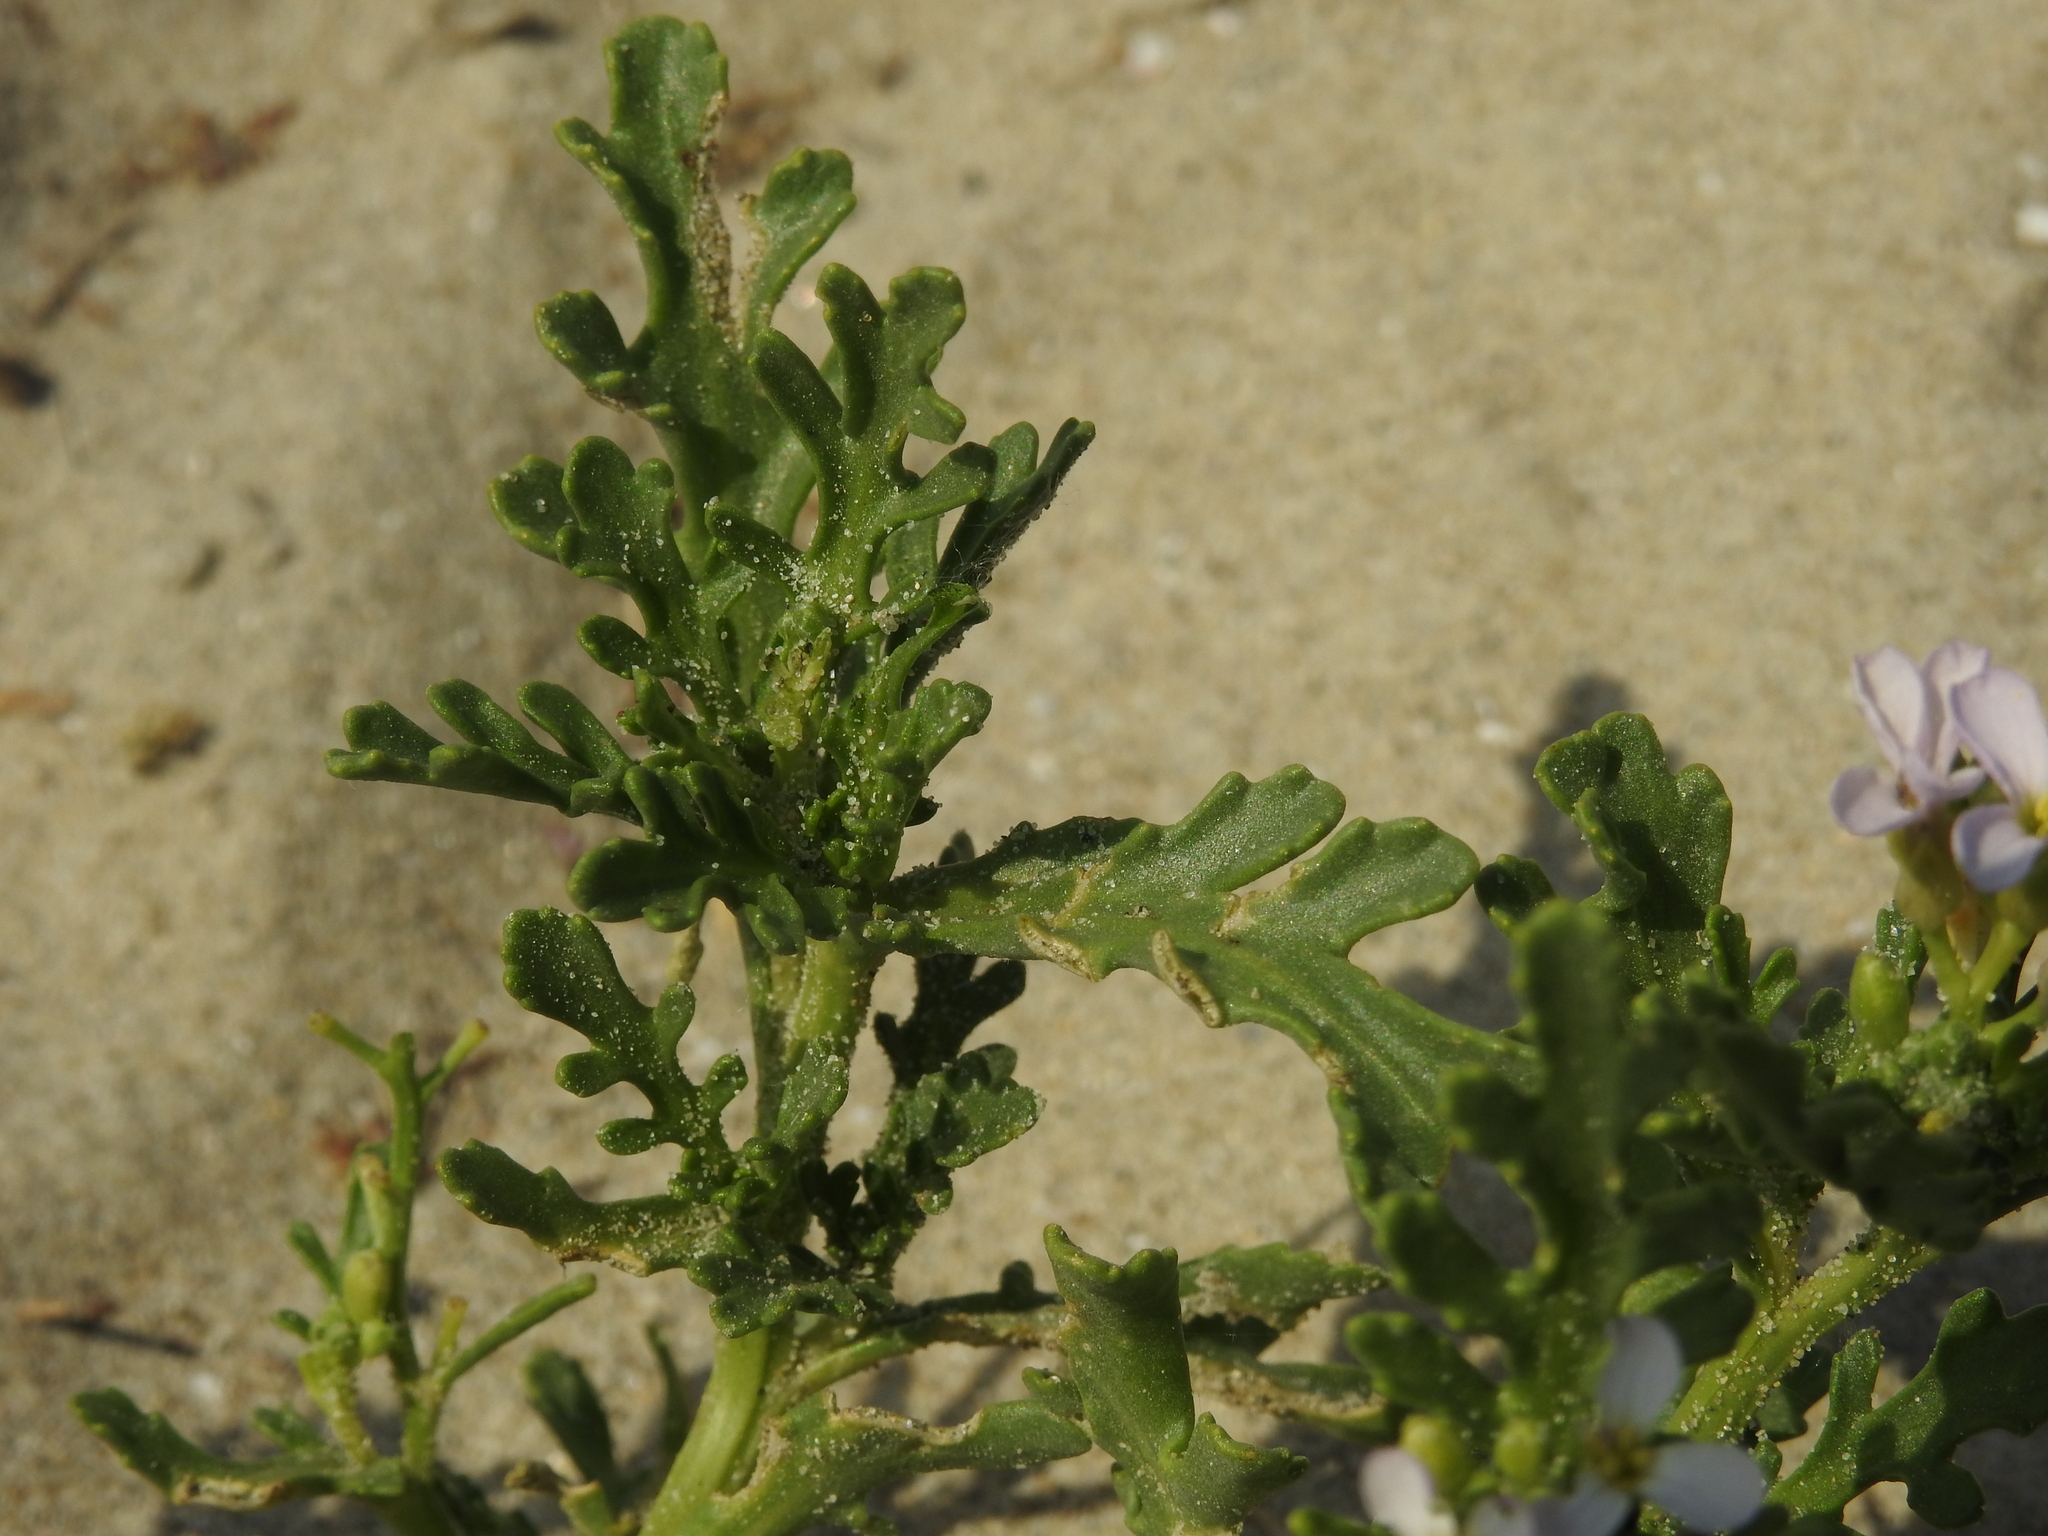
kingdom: Plantae
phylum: Tracheophyta
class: Magnoliopsida
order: Brassicales
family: Brassicaceae
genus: Cakile
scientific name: Cakile maritima
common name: Sea rocket
